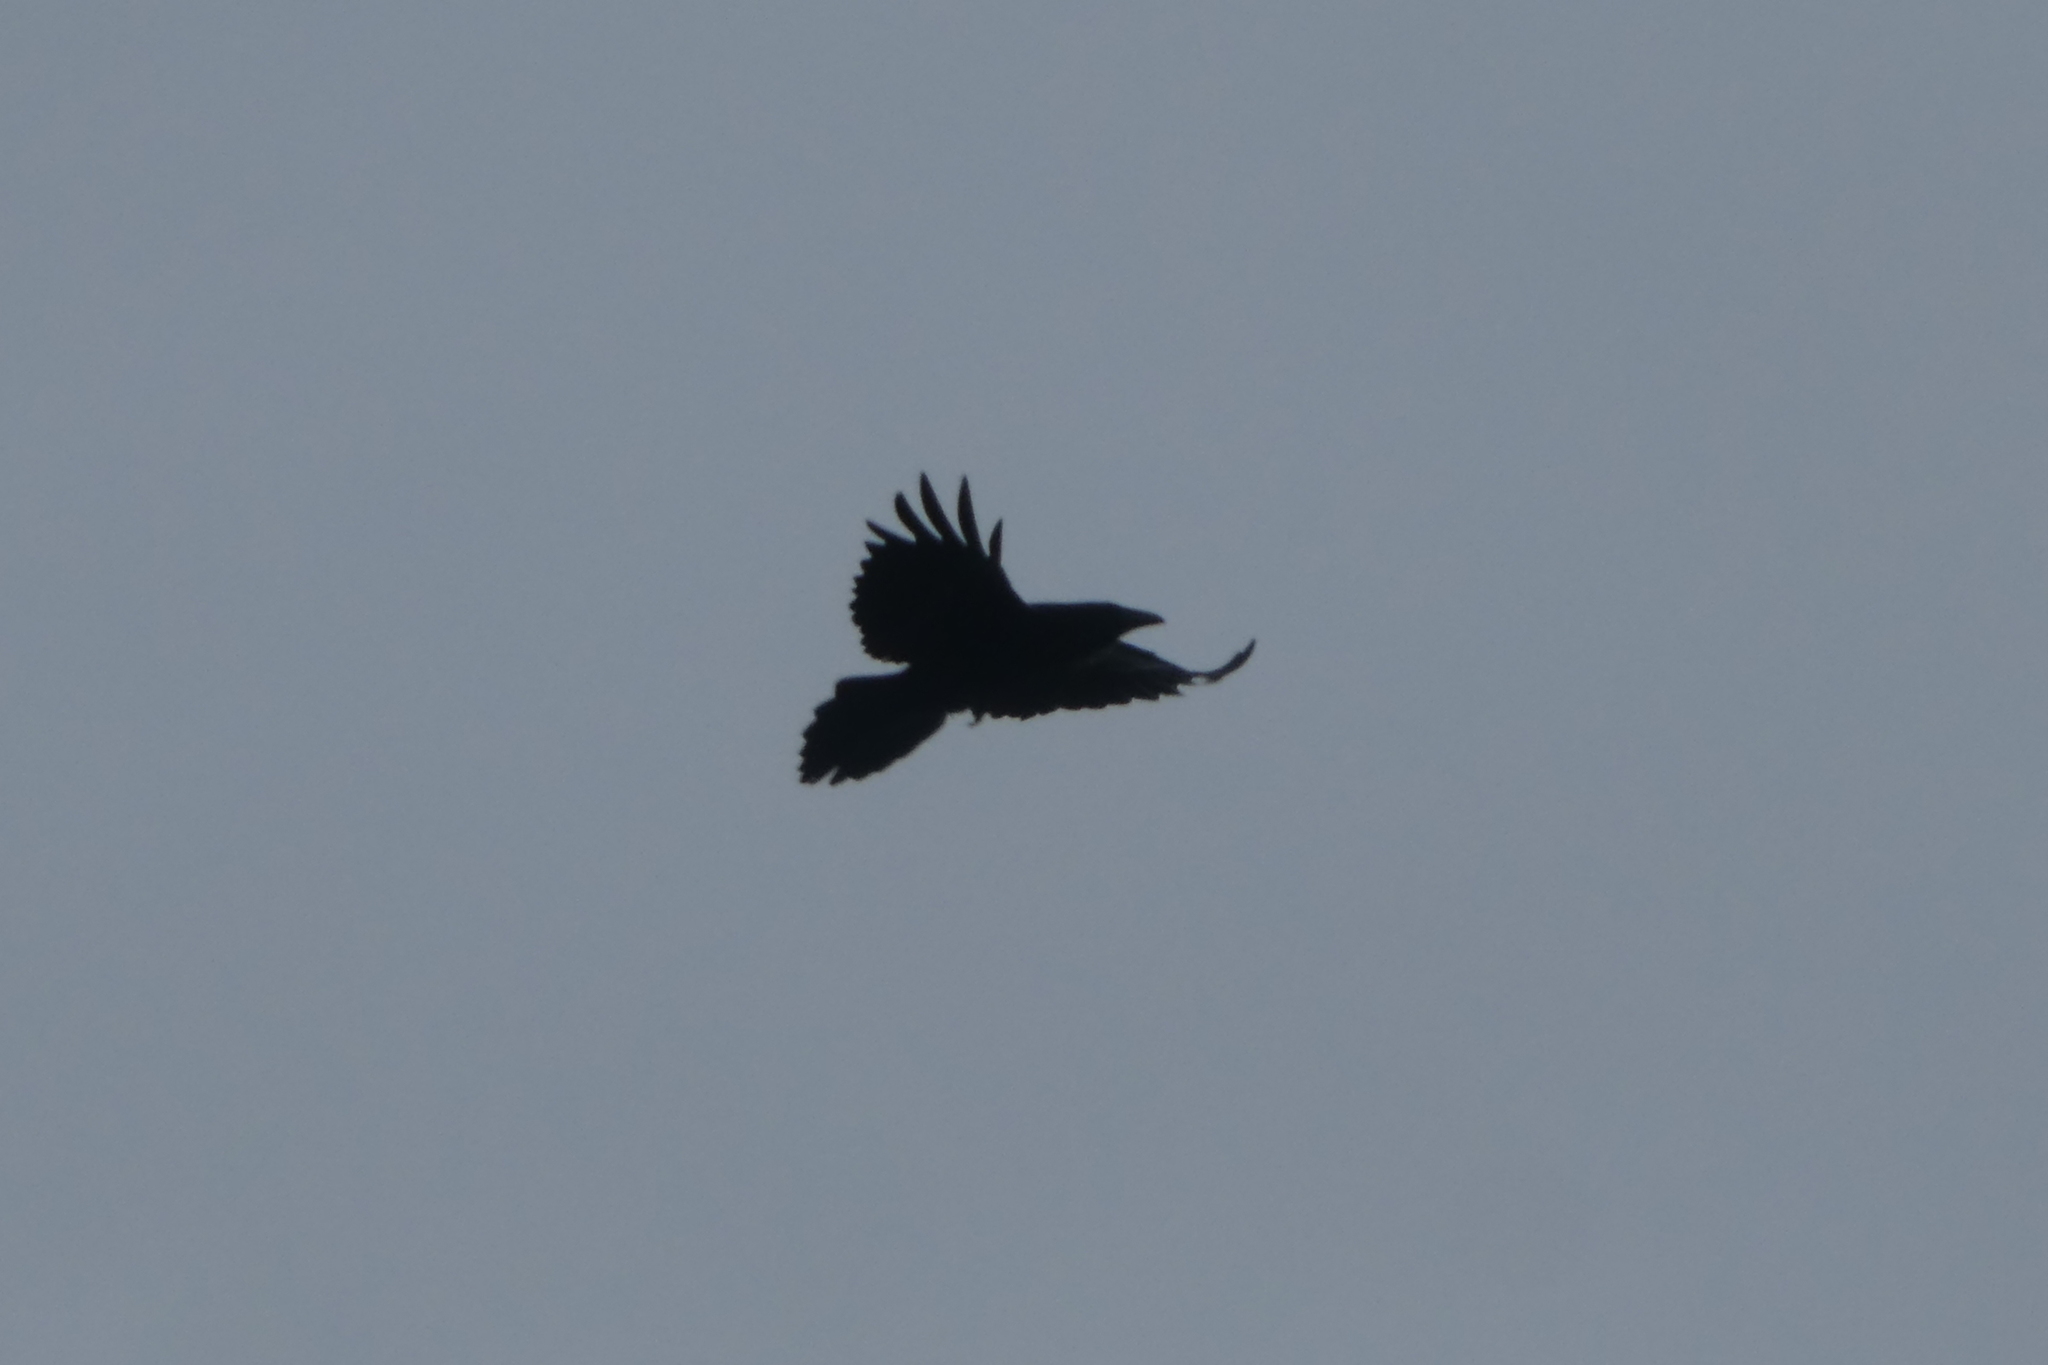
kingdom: Animalia
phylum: Chordata
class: Aves
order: Passeriformes
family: Corvidae
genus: Corvus
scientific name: Corvus corax
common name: Common raven
